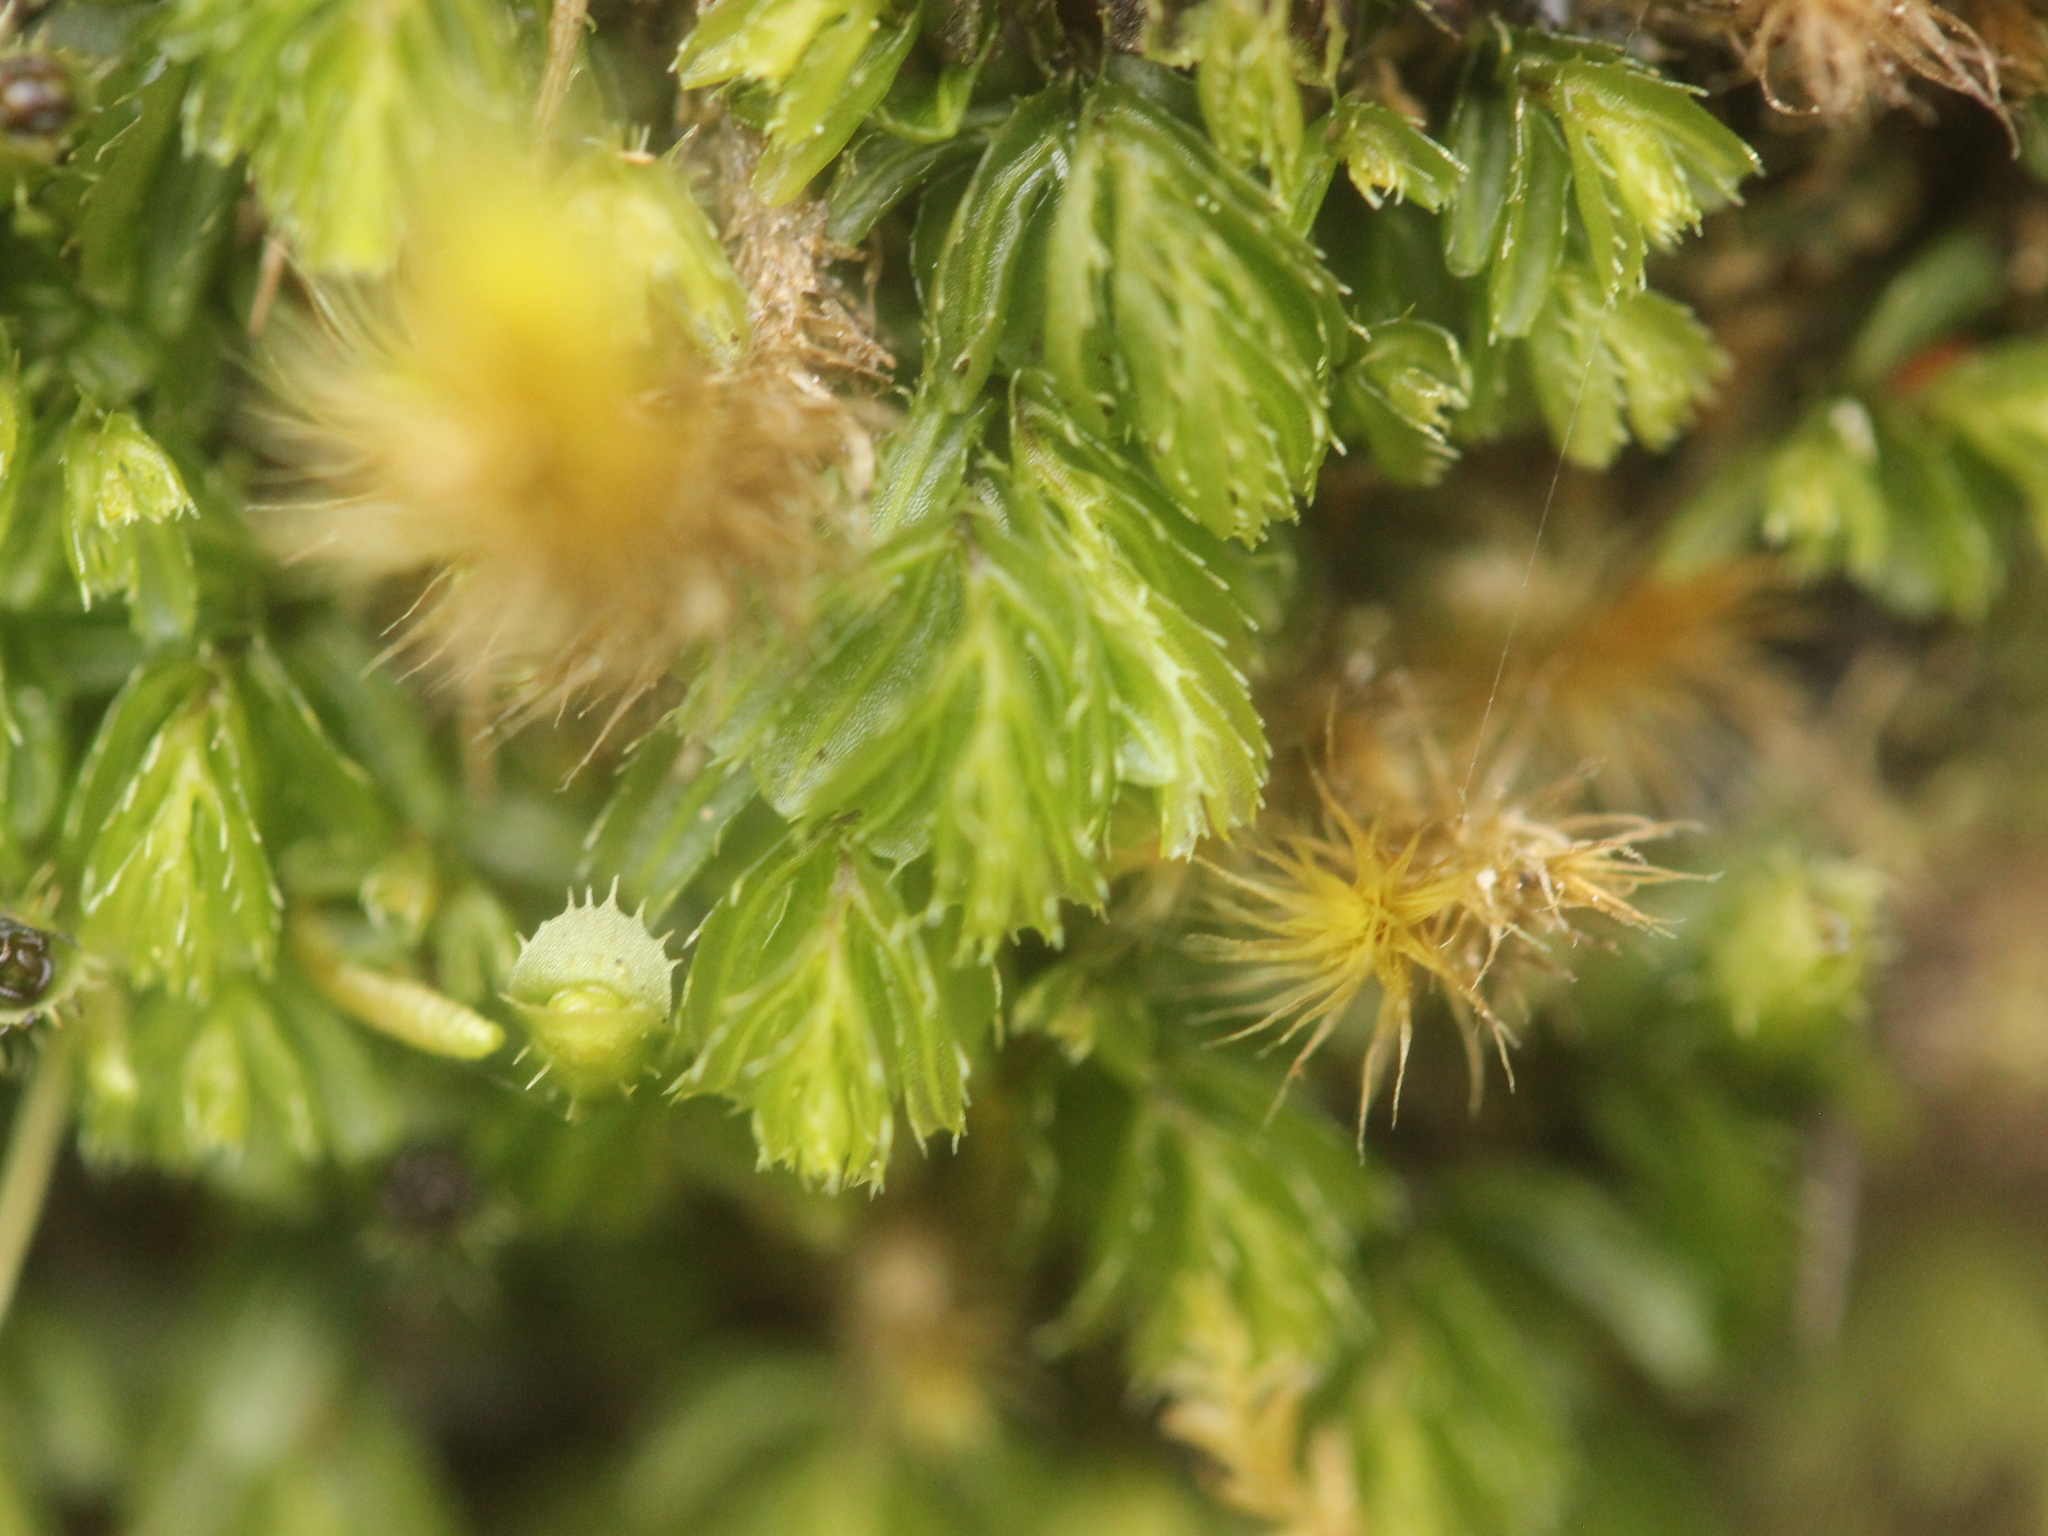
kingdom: Plantae
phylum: Tracheophyta
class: Polypodiopsida
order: Hymenophyllales
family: Hymenophyllaceae
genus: Hymenophyllum
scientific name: Hymenophyllum minimum
